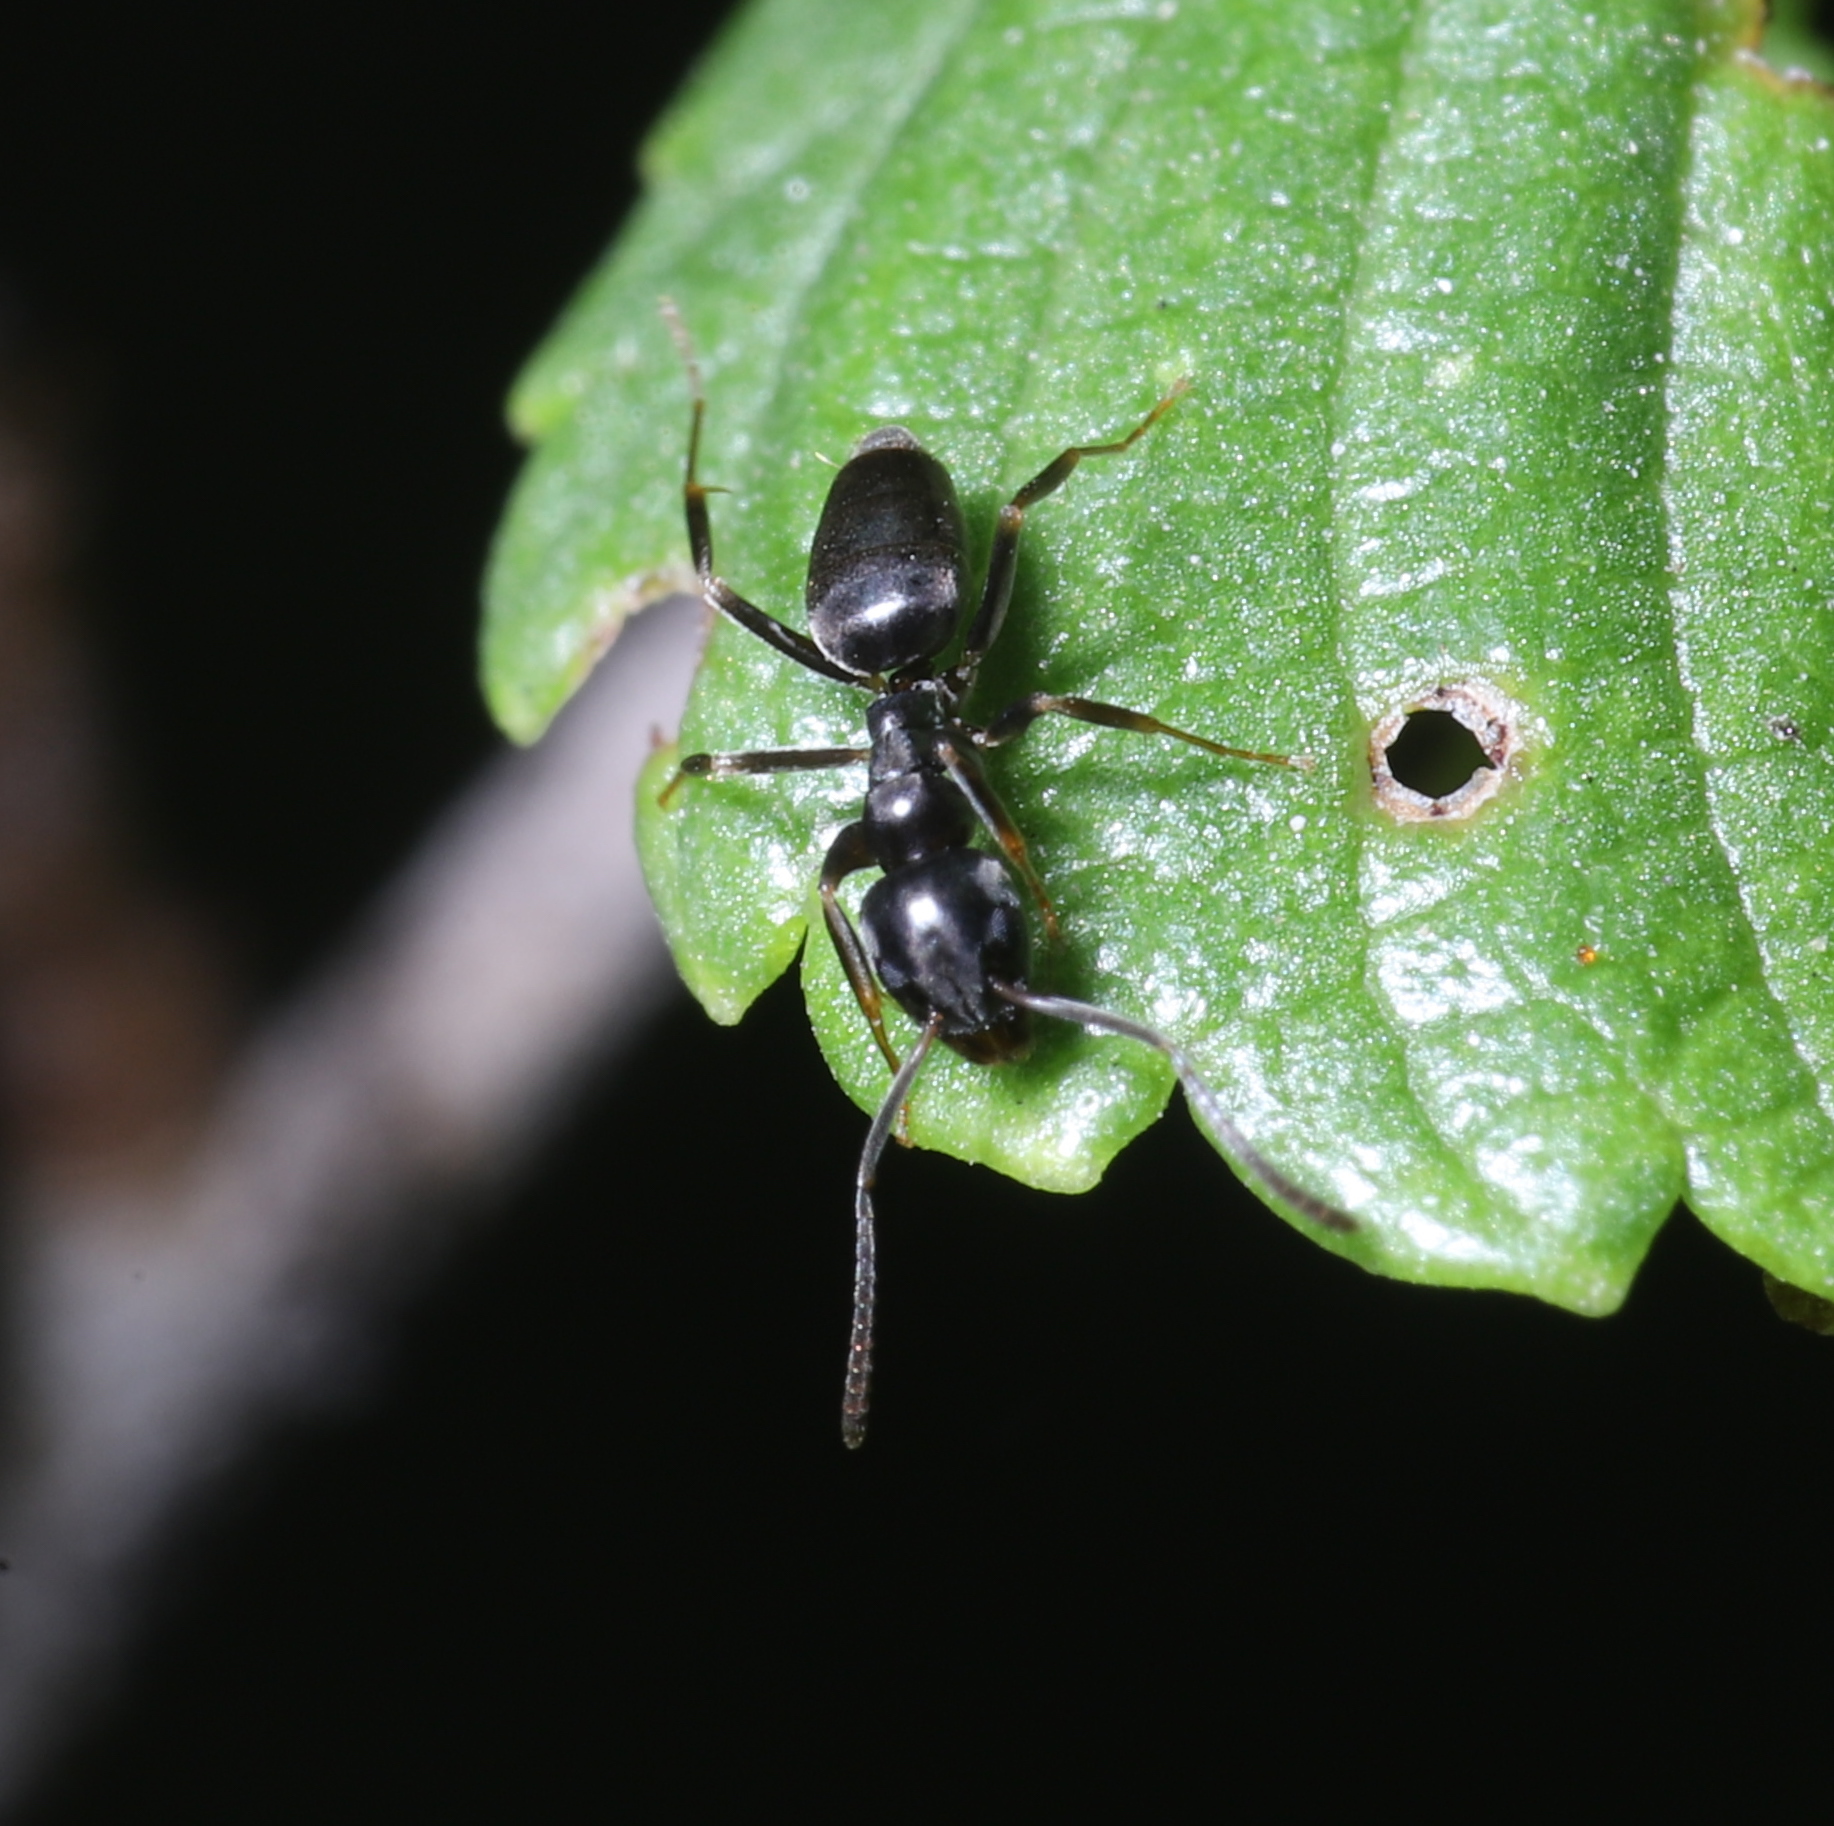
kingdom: Animalia
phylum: Arthropoda
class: Insecta
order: Hymenoptera
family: Formicidae
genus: Tapinoma
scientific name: Tapinoma sessile
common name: Odorous house ant
